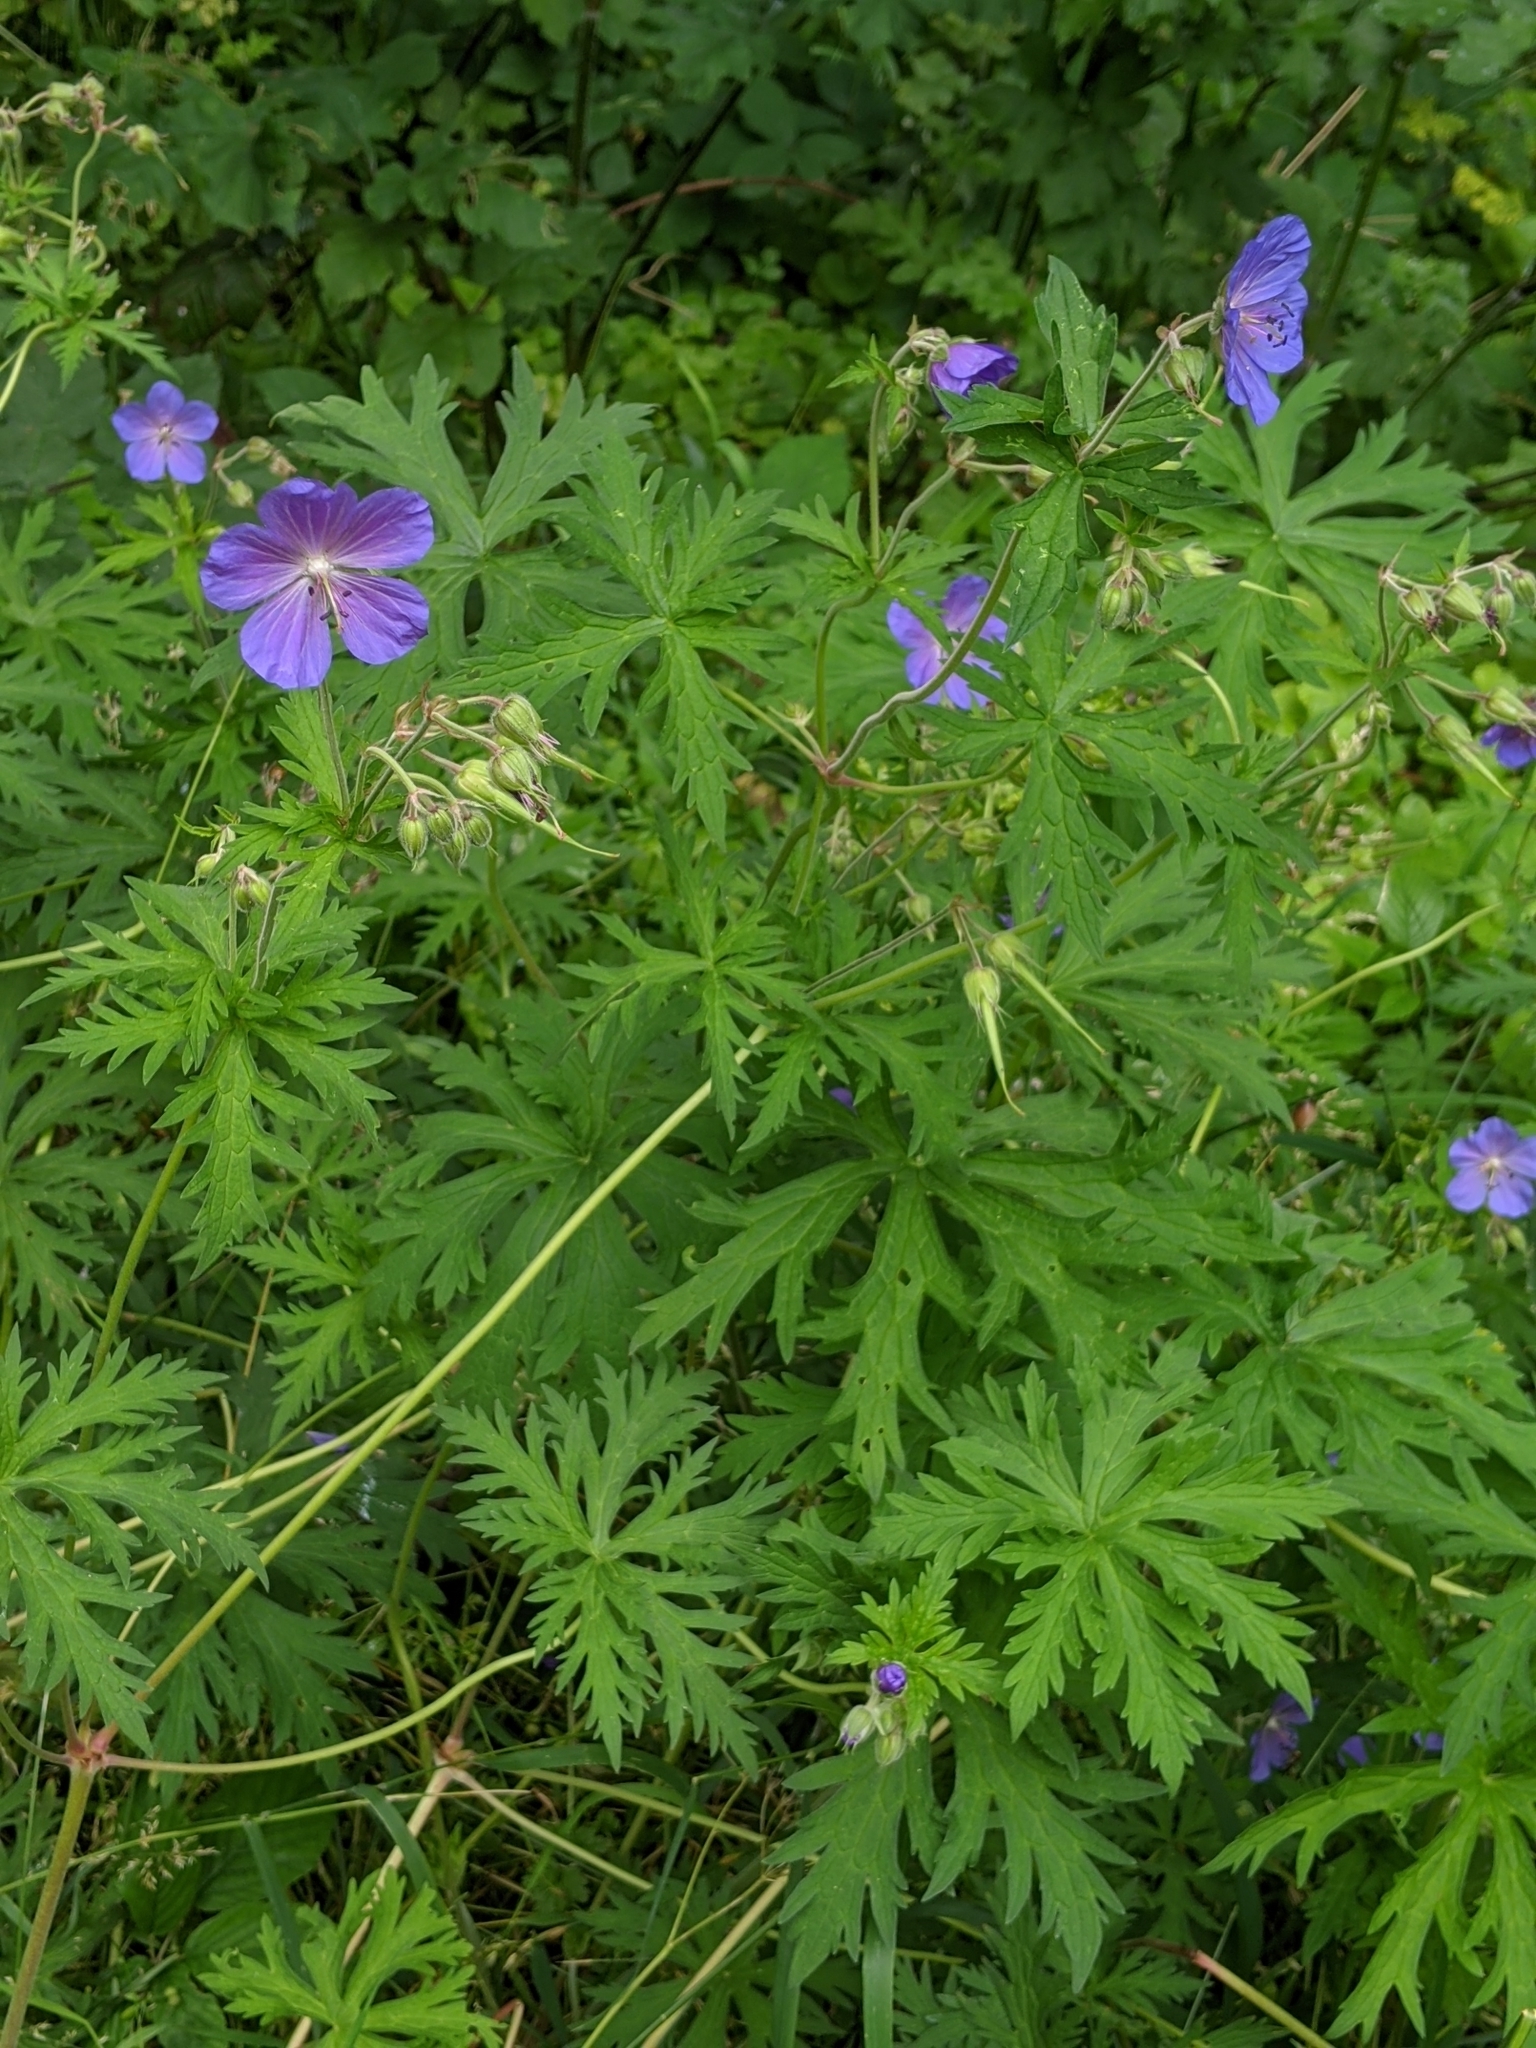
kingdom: Plantae
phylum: Tracheophyta
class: Magnoliopsida
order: Geraniales
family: Geraniaceae
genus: Geranium
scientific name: Geranium pratense
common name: Meadow crane's-bill
